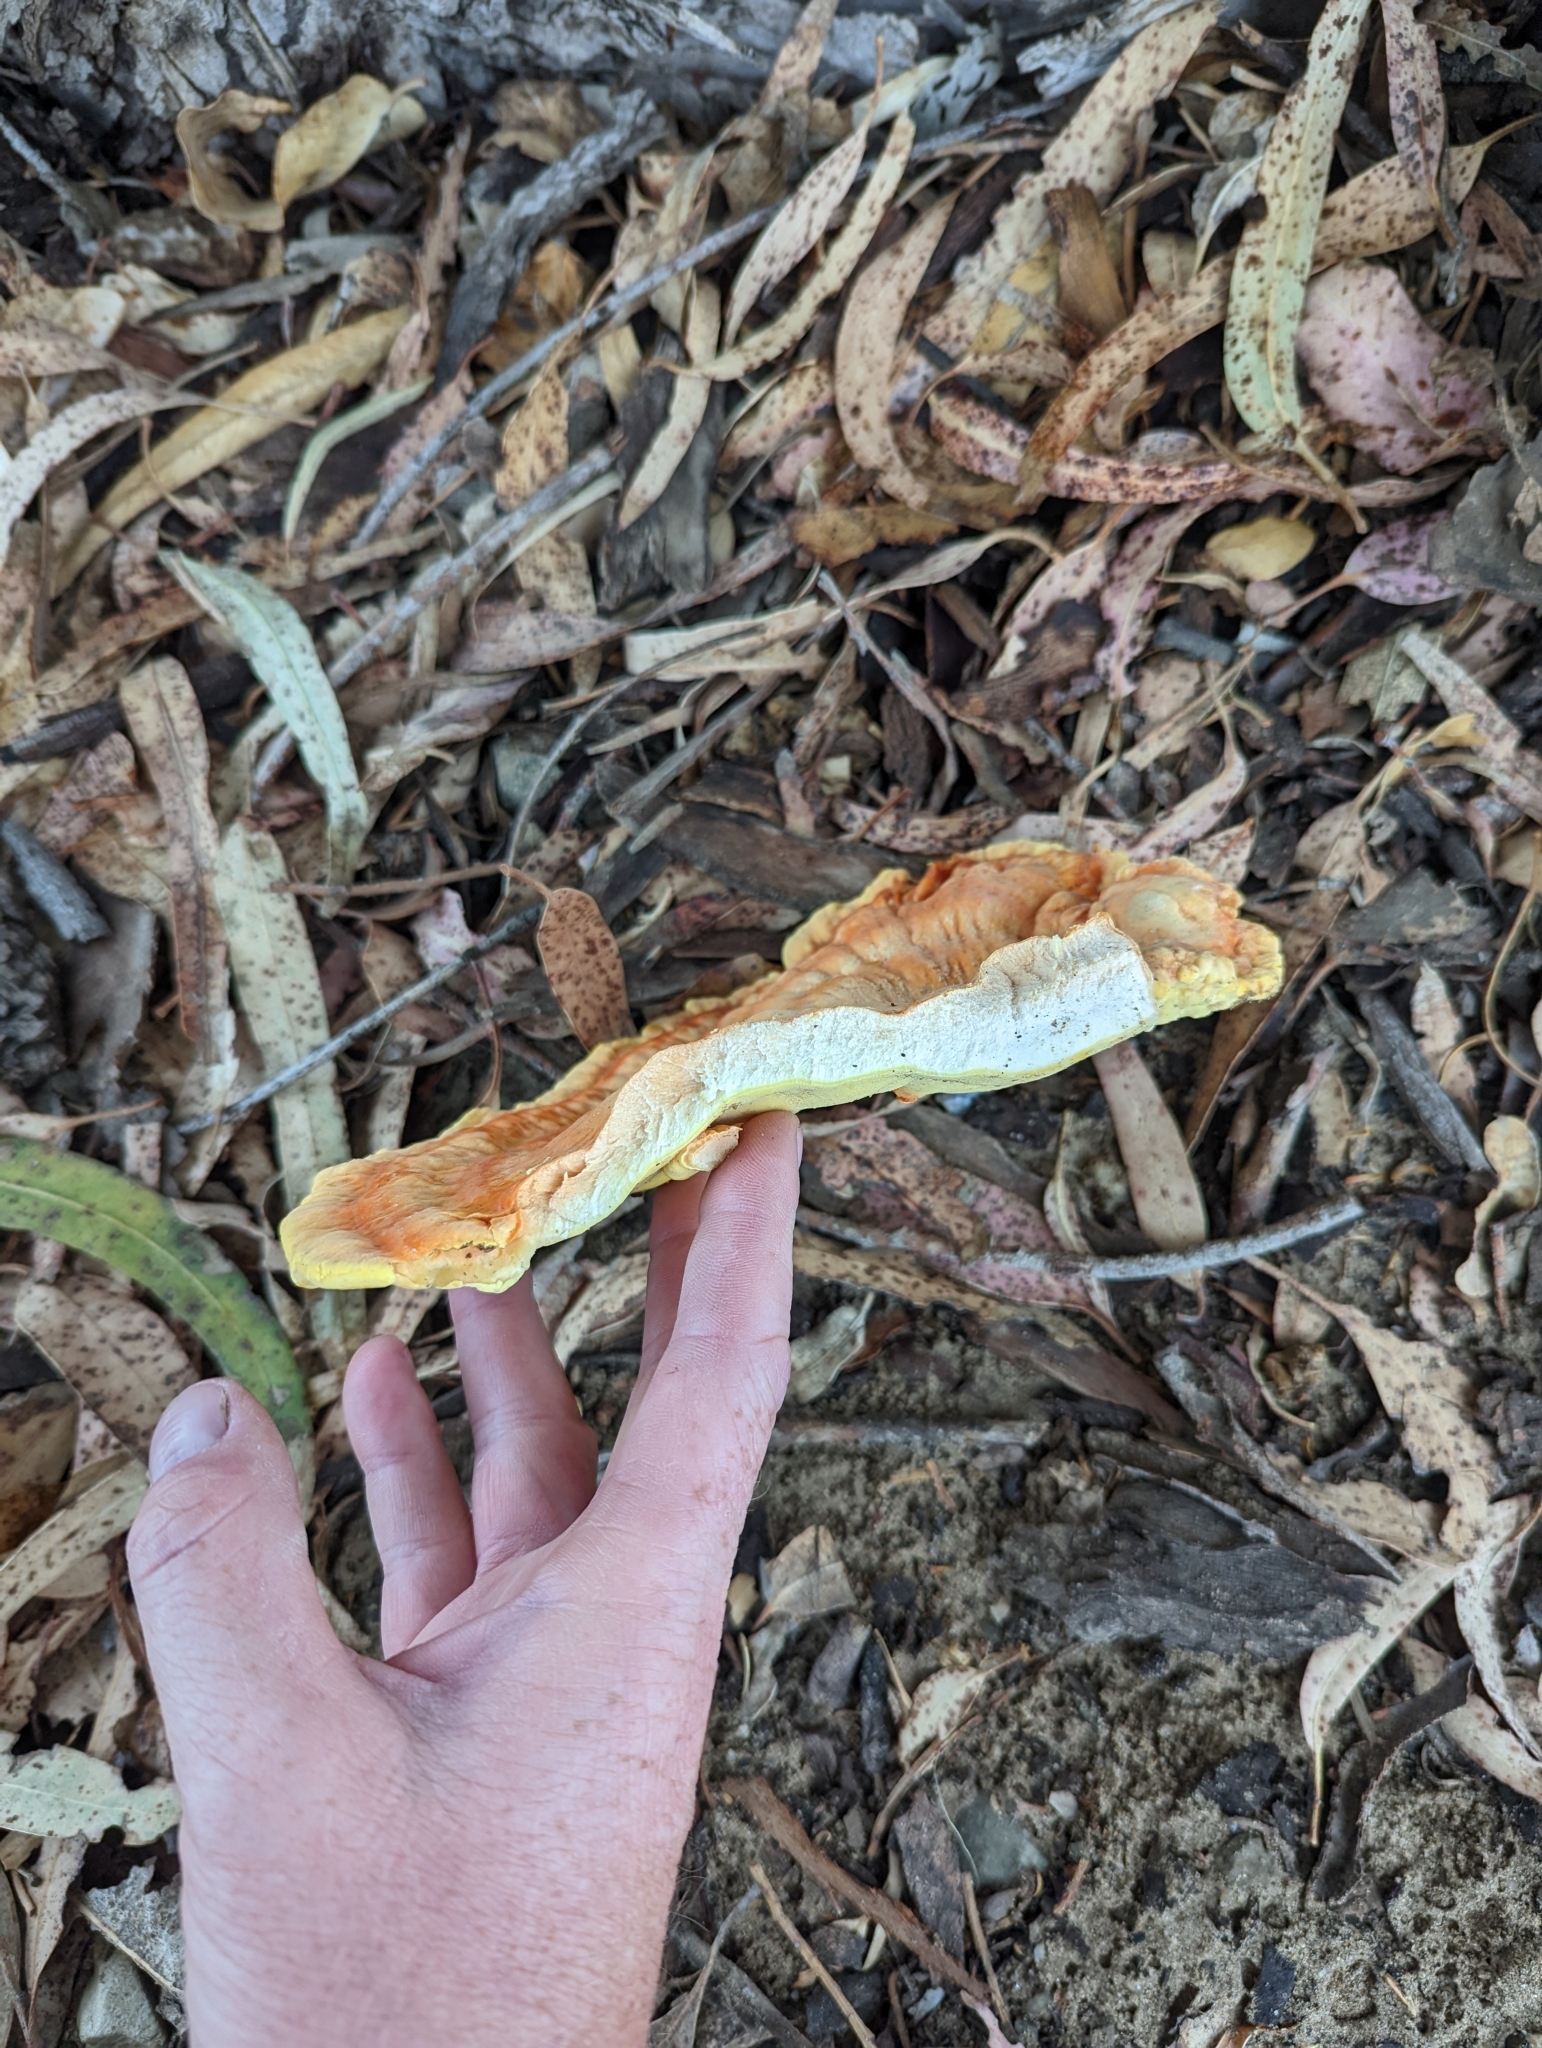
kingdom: Fungi
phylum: Basidiomycota
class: Agaricomycetes
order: Polyporales
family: Laetiporaceae
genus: Laetiporus
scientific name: Laetiporus gilbertsonii
